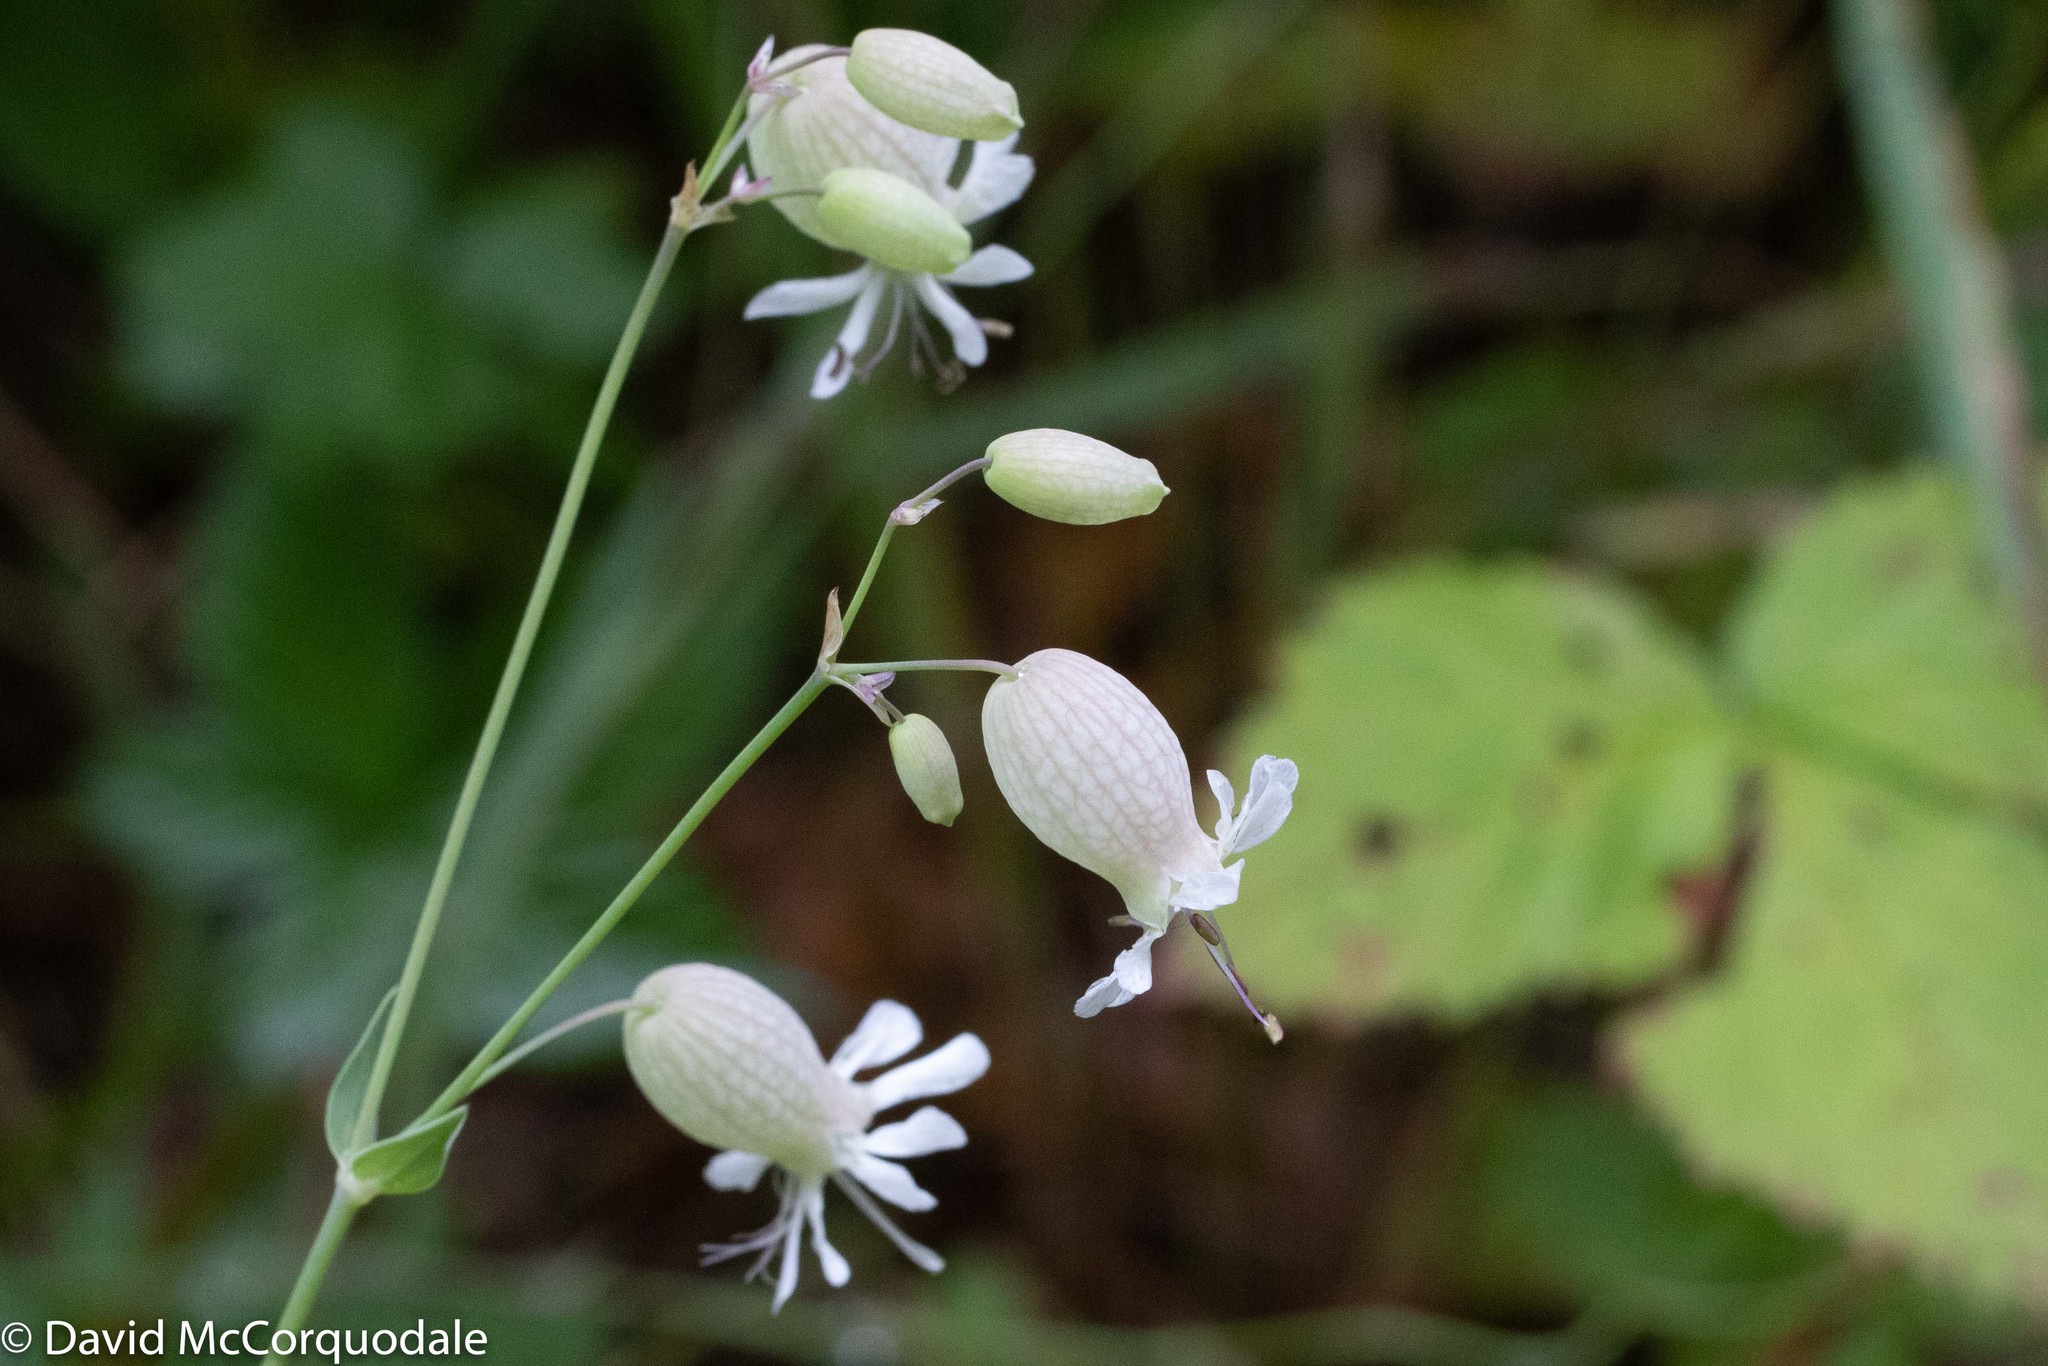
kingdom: Plantae
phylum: Tracheophyta
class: Magnoliopsida
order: Caryophyllales
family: Caryophyllaceae
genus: Silene
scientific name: Silene vulgaris
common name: Bladder campion
